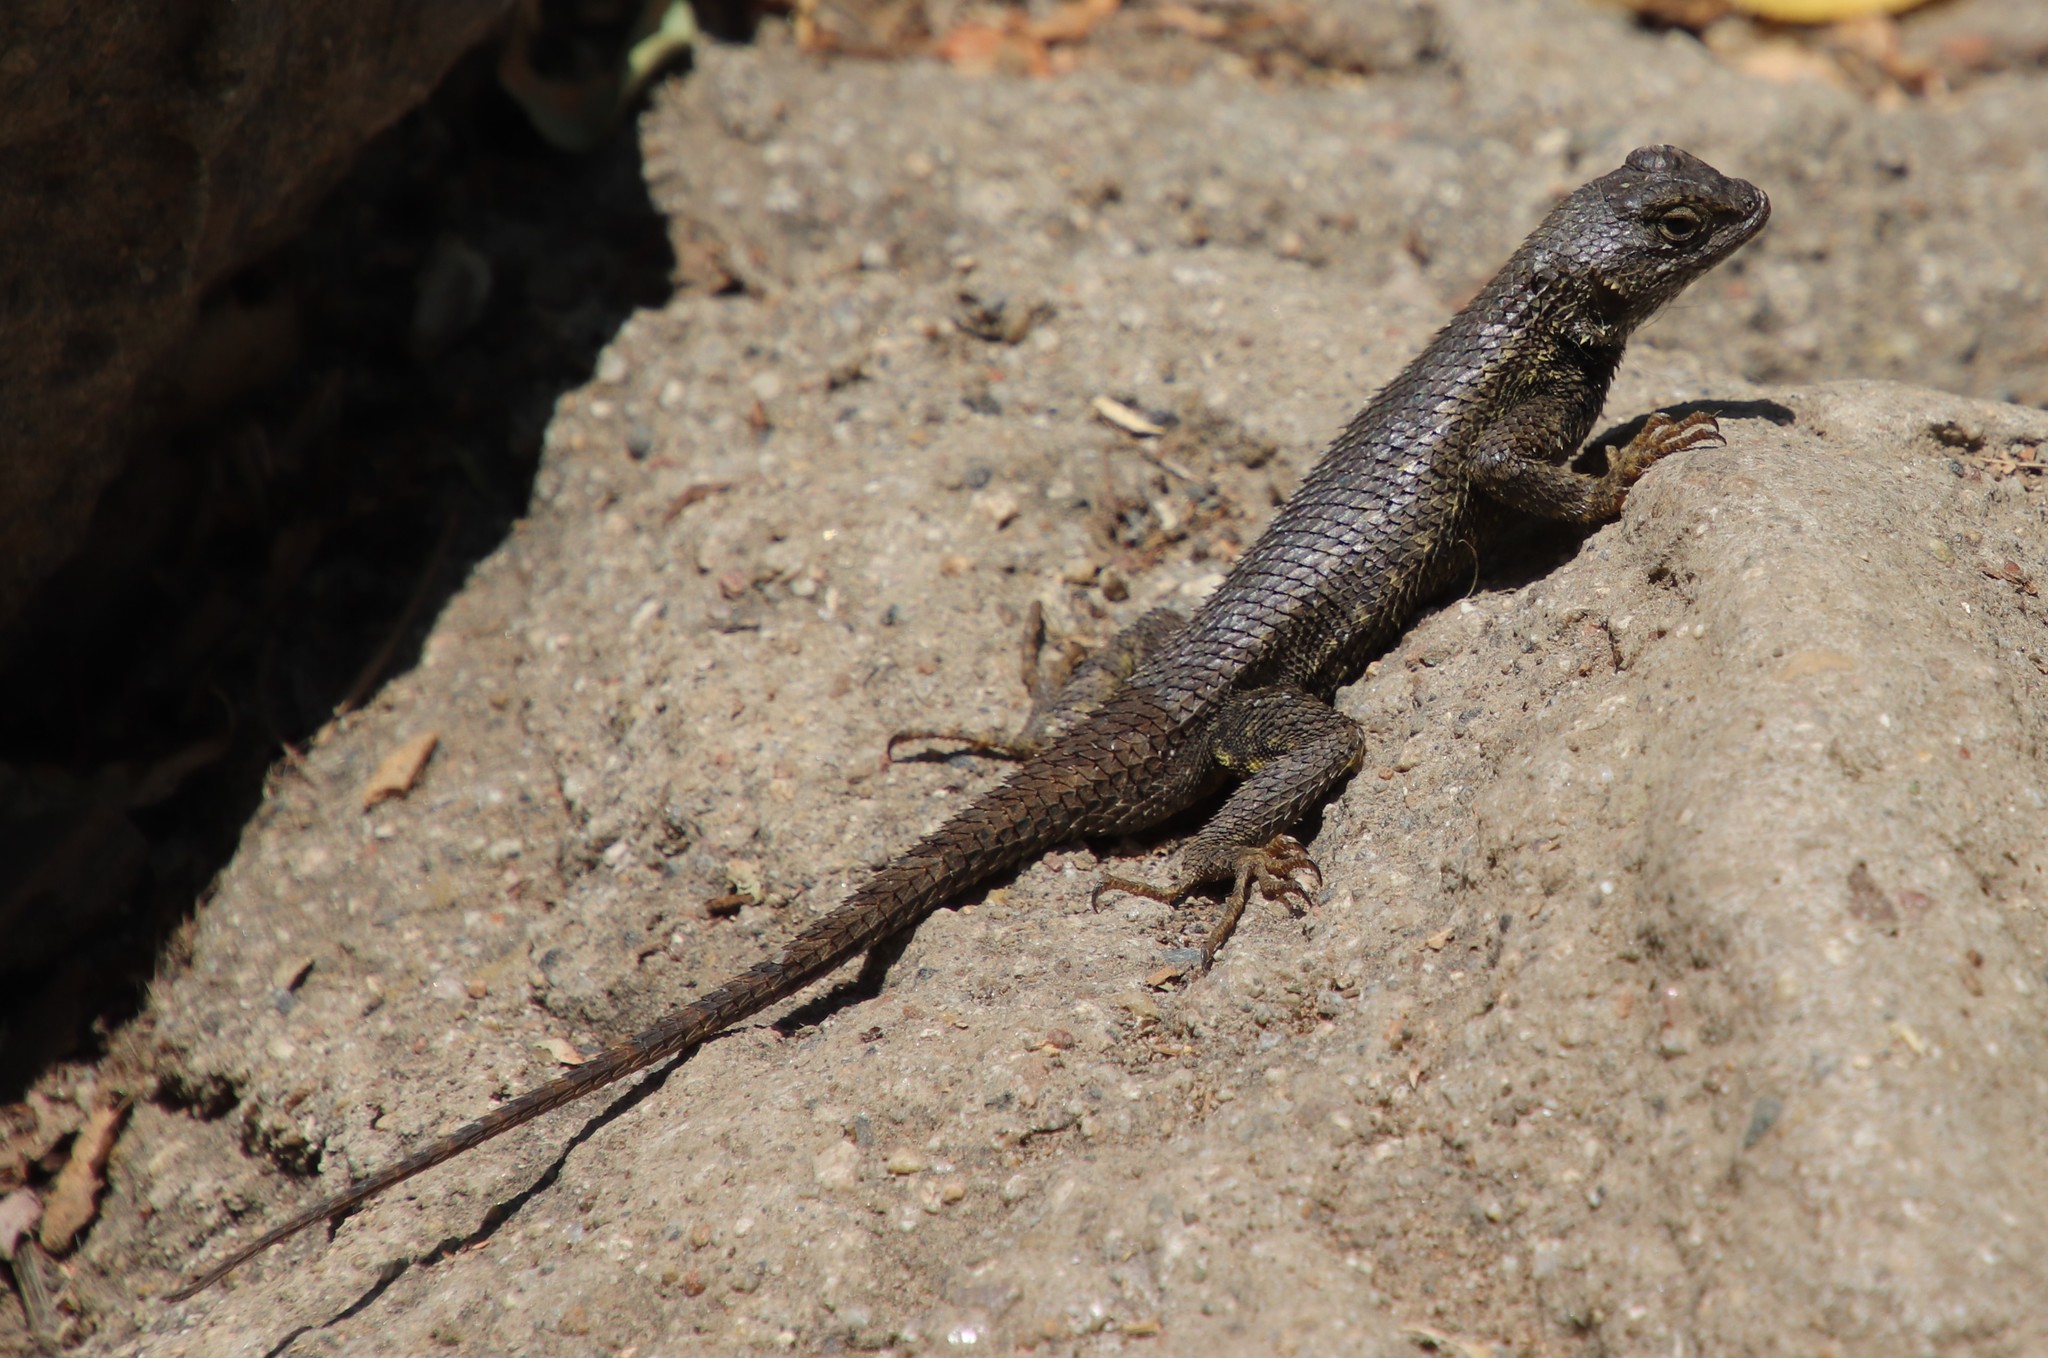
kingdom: Animalia
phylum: Chordata
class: Squamata
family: Phrynosomatidae
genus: Sceloporus
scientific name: Sceloporus occidentalis
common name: Western fence lizard
